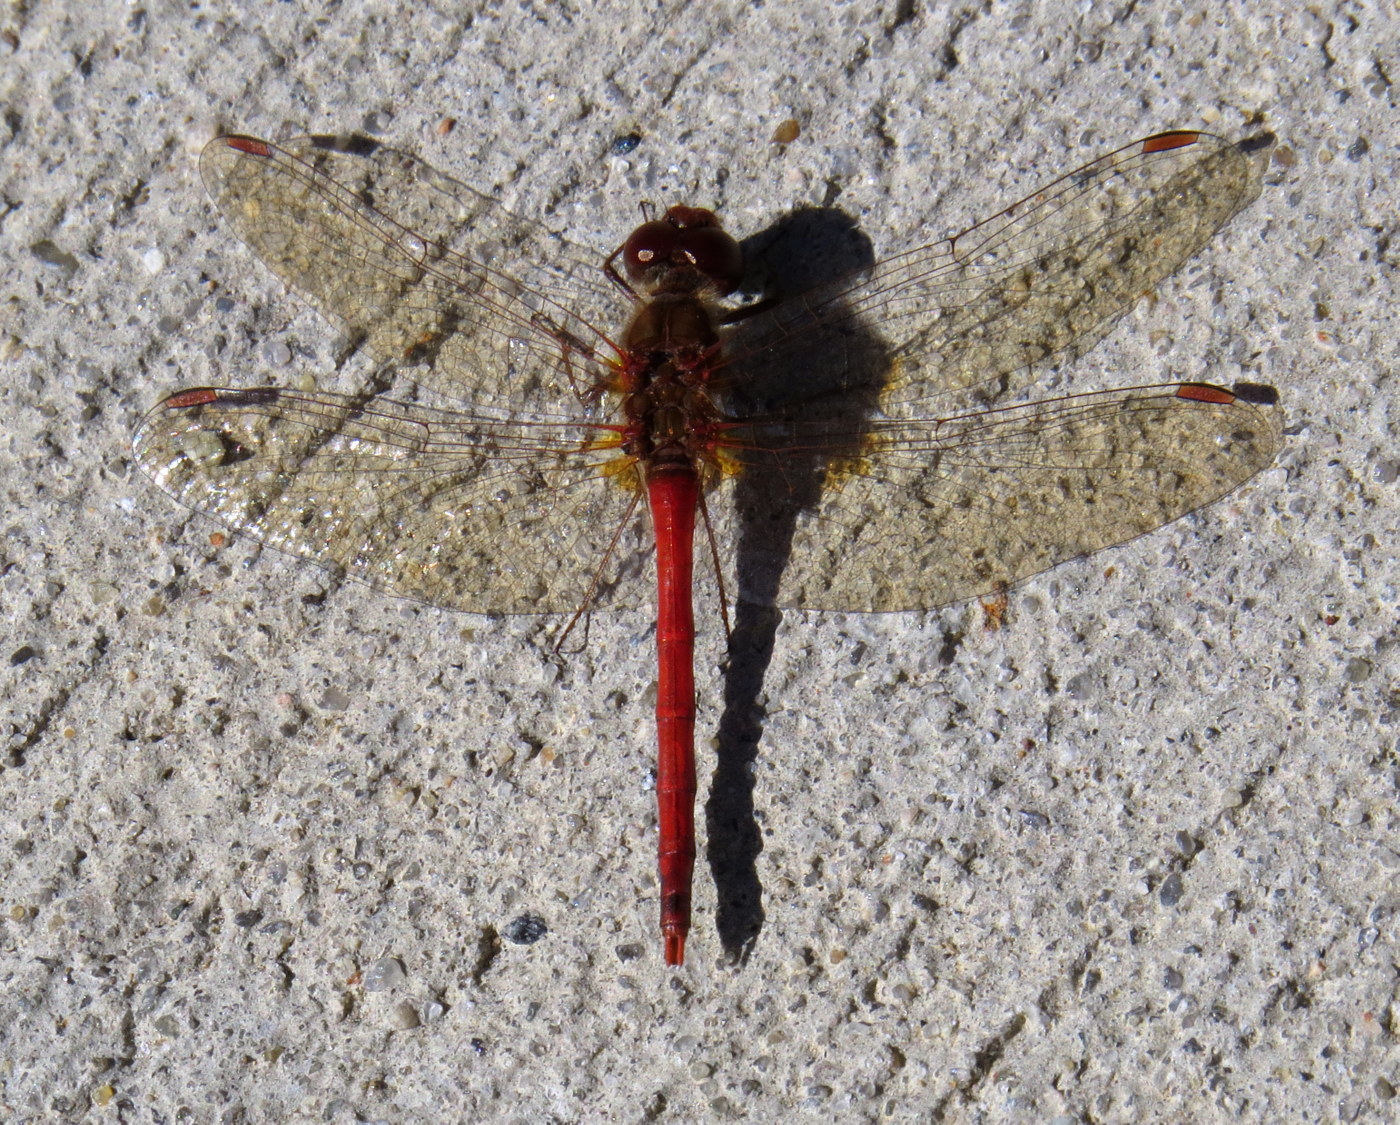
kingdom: Animalia
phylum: Arthropoda
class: Insecta
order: Odonata
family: Libellulidae
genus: Sympetrum
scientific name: Sympetrum vicinum
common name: Autumn meadowhawk
